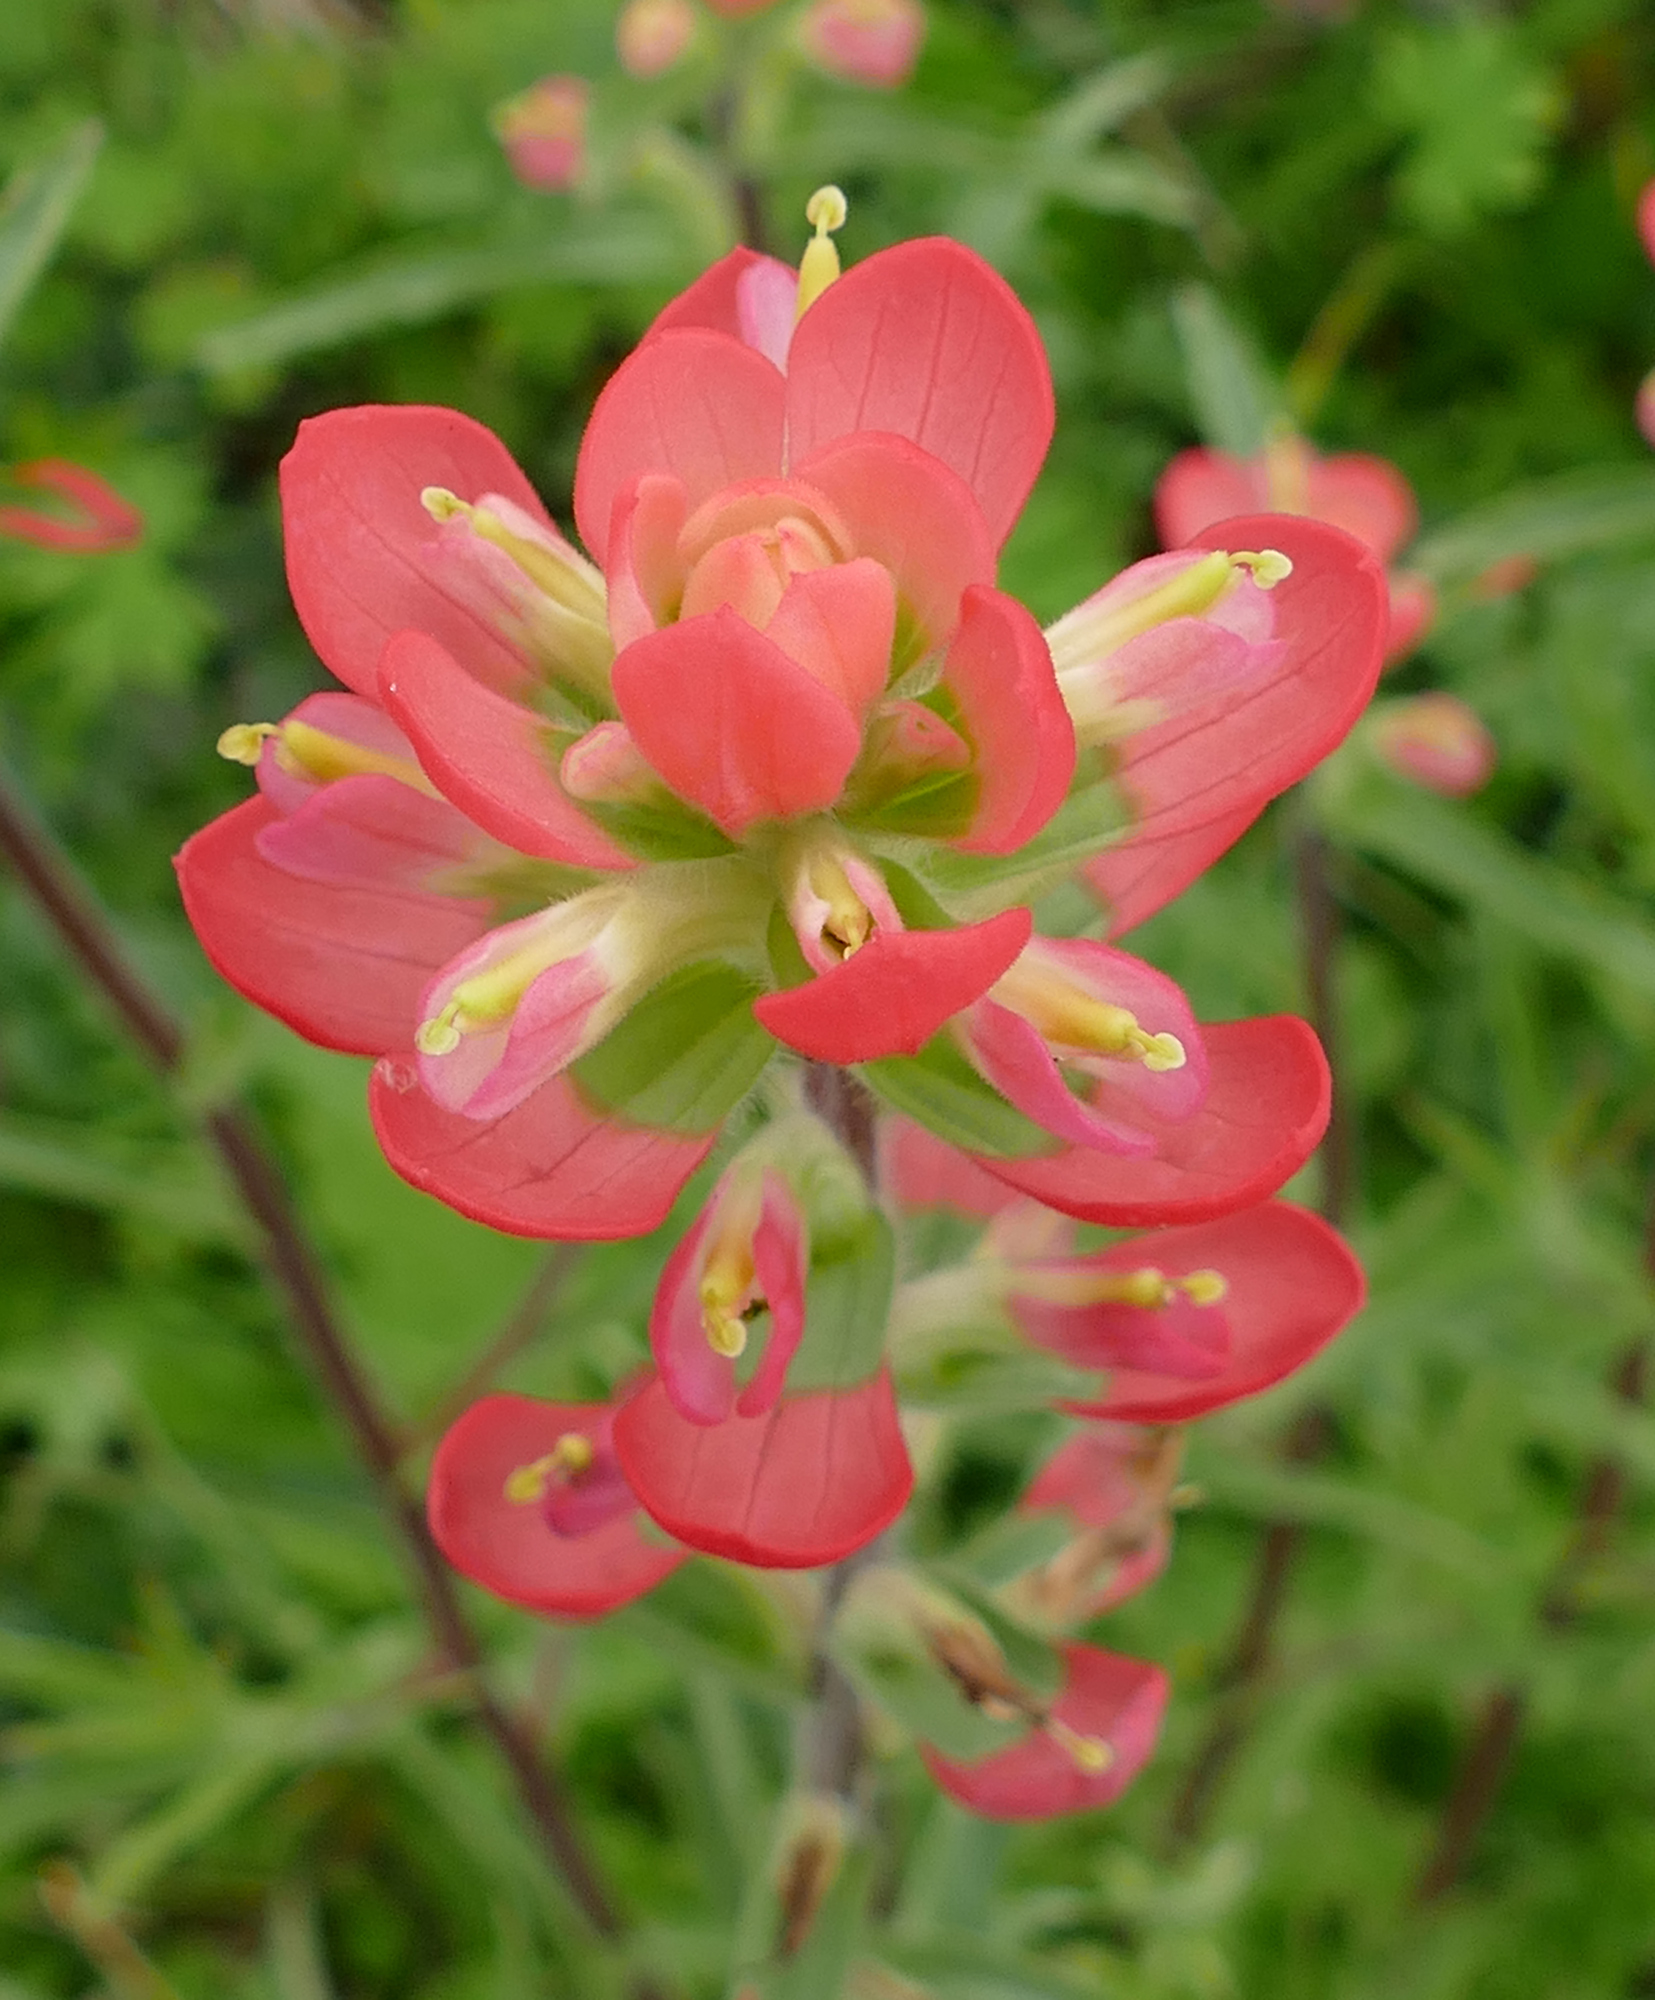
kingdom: Plantae
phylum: Tracheophyta
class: Magnoliopsida
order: Lamiales
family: Orobanchaceae
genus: Castilleja
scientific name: Castilleja indivisa
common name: Texas paintbrush
